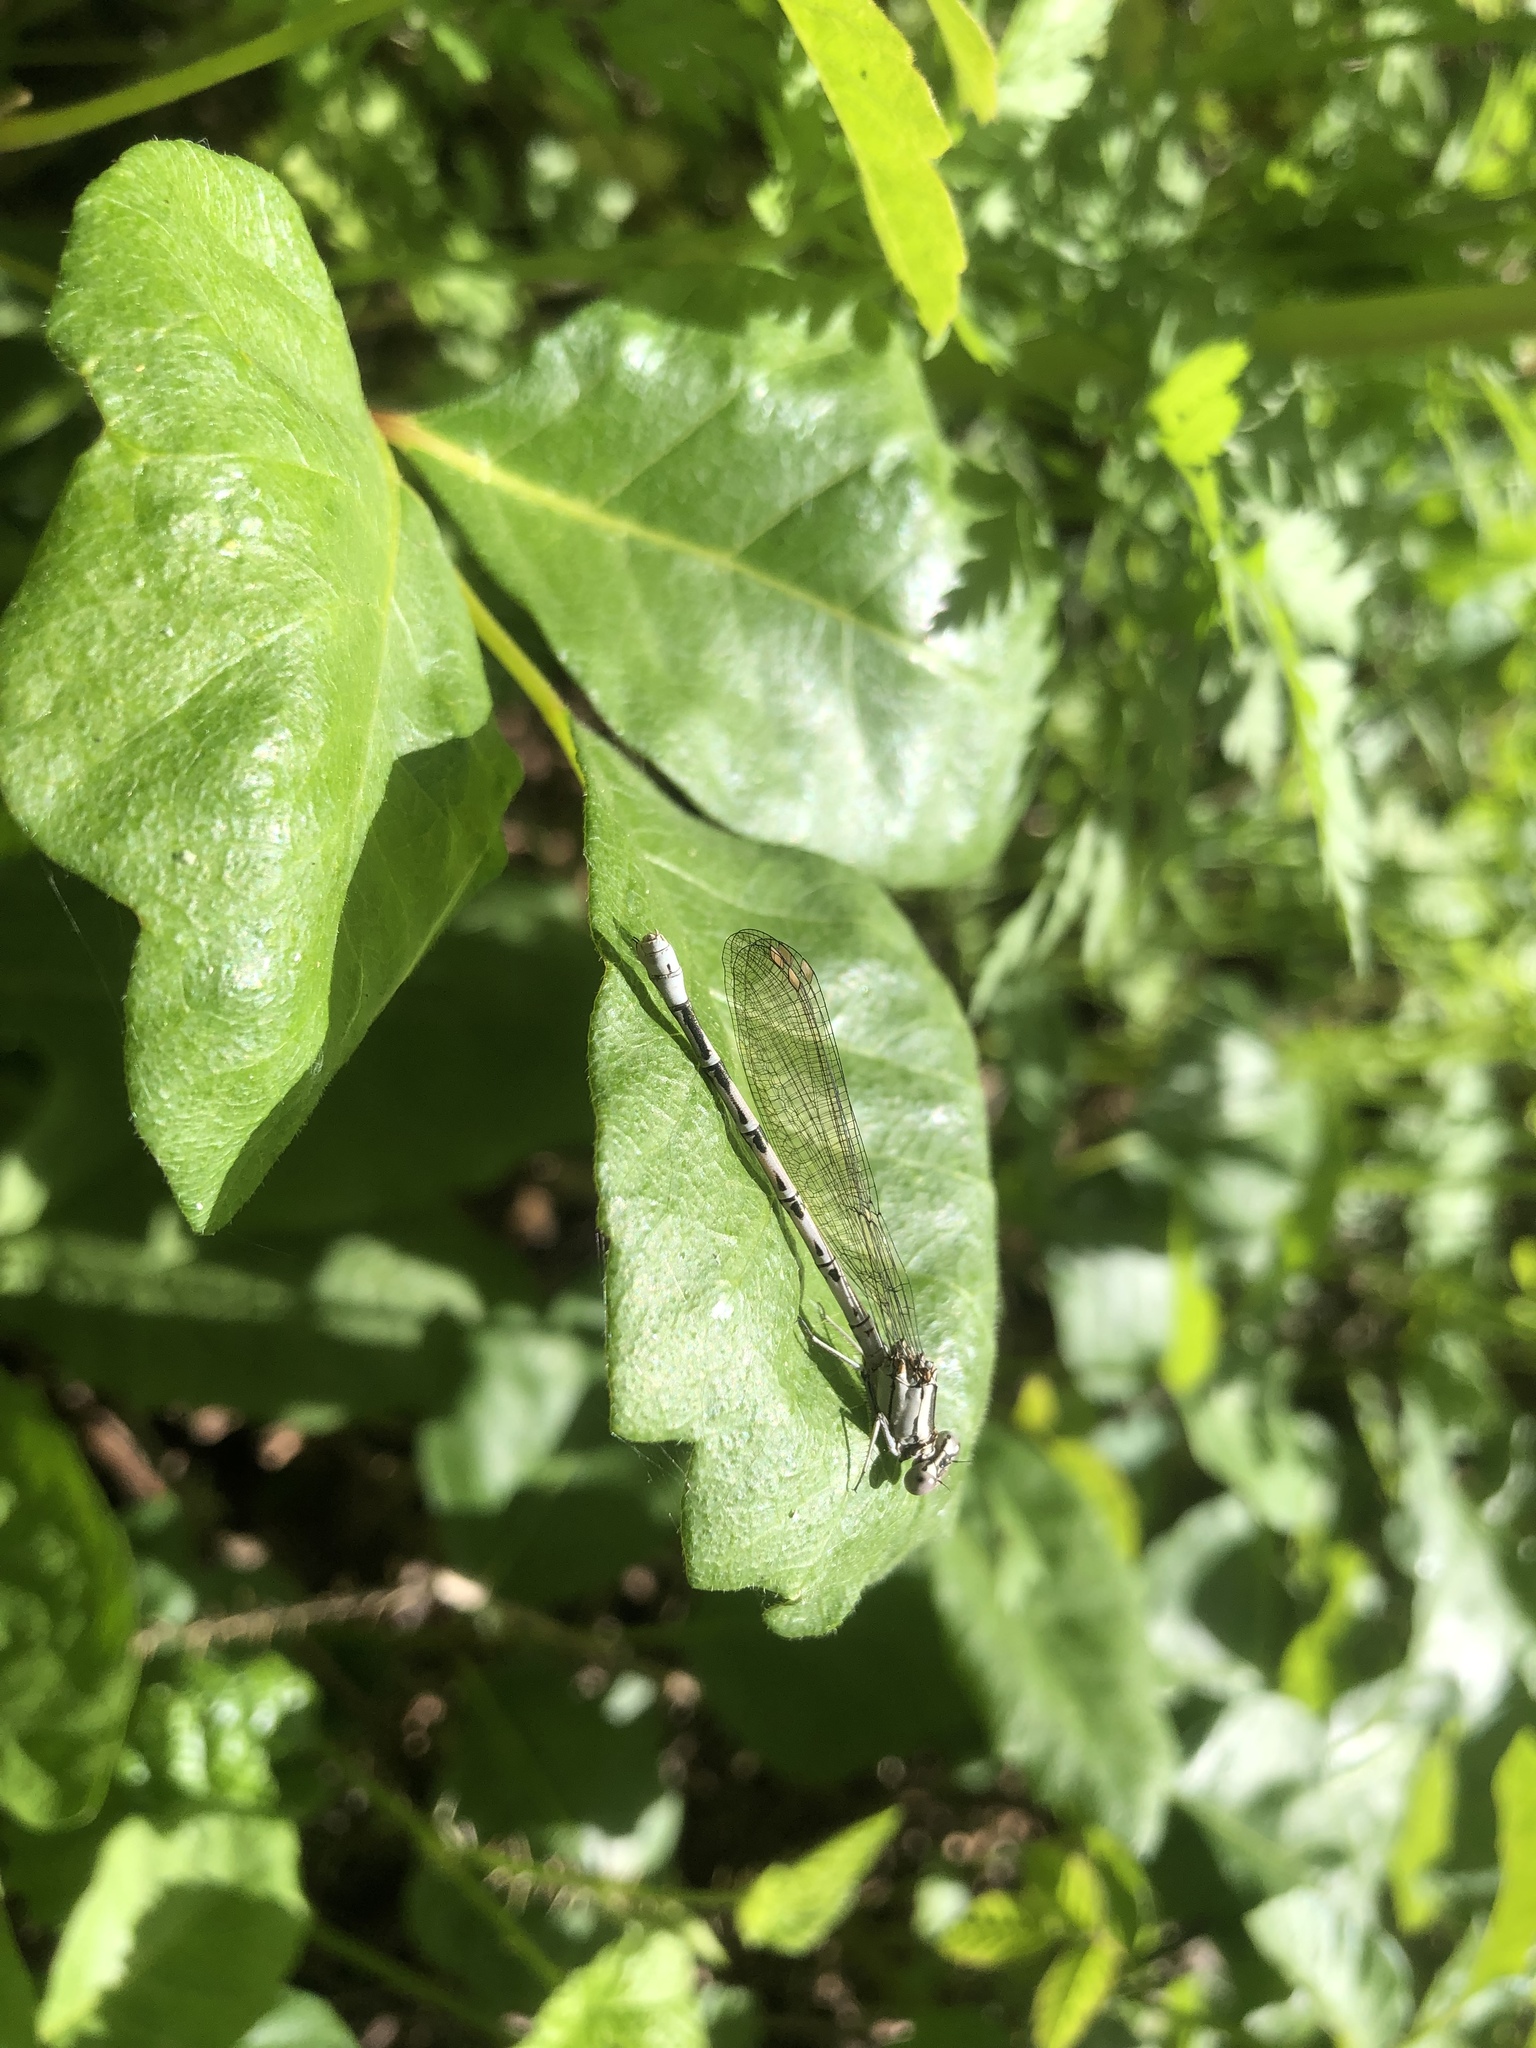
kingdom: Animalia
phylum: Arthropoda
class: Insecta
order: Odonata
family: Coenagrionidae
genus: Argia
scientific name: Argia vivida
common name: Vivid dancer
